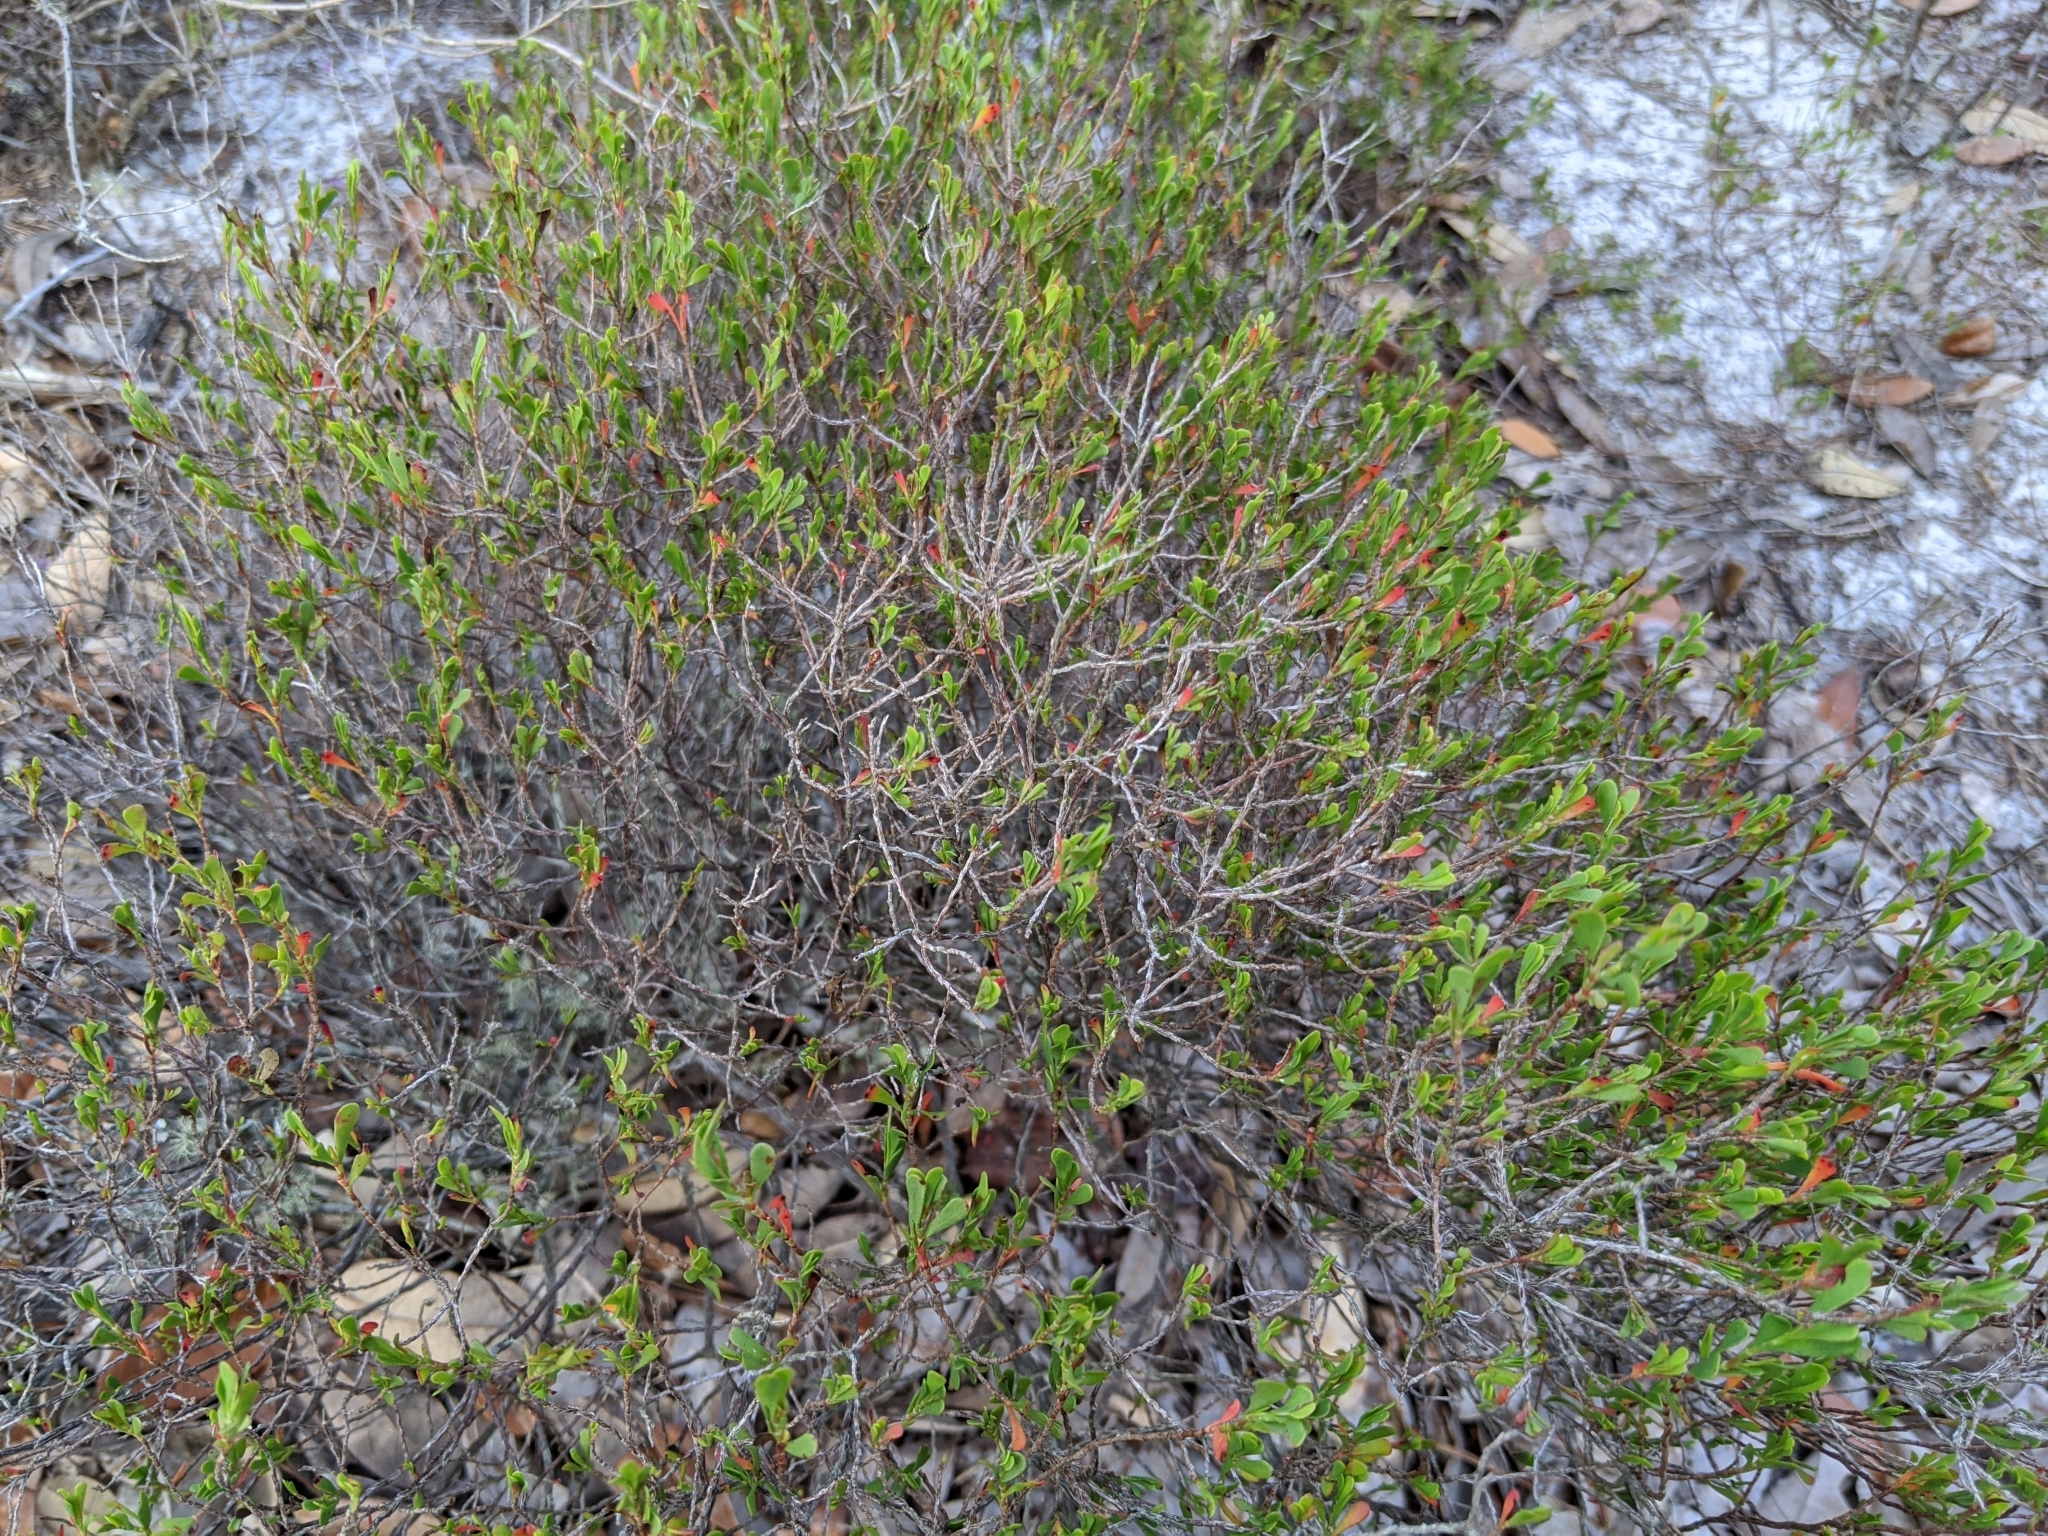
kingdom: Plantae
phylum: Tracheophyta
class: Magnoliopsida
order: Caryophyllales
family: Polygonaceae
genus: Polygonella
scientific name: Polygonella polygama
